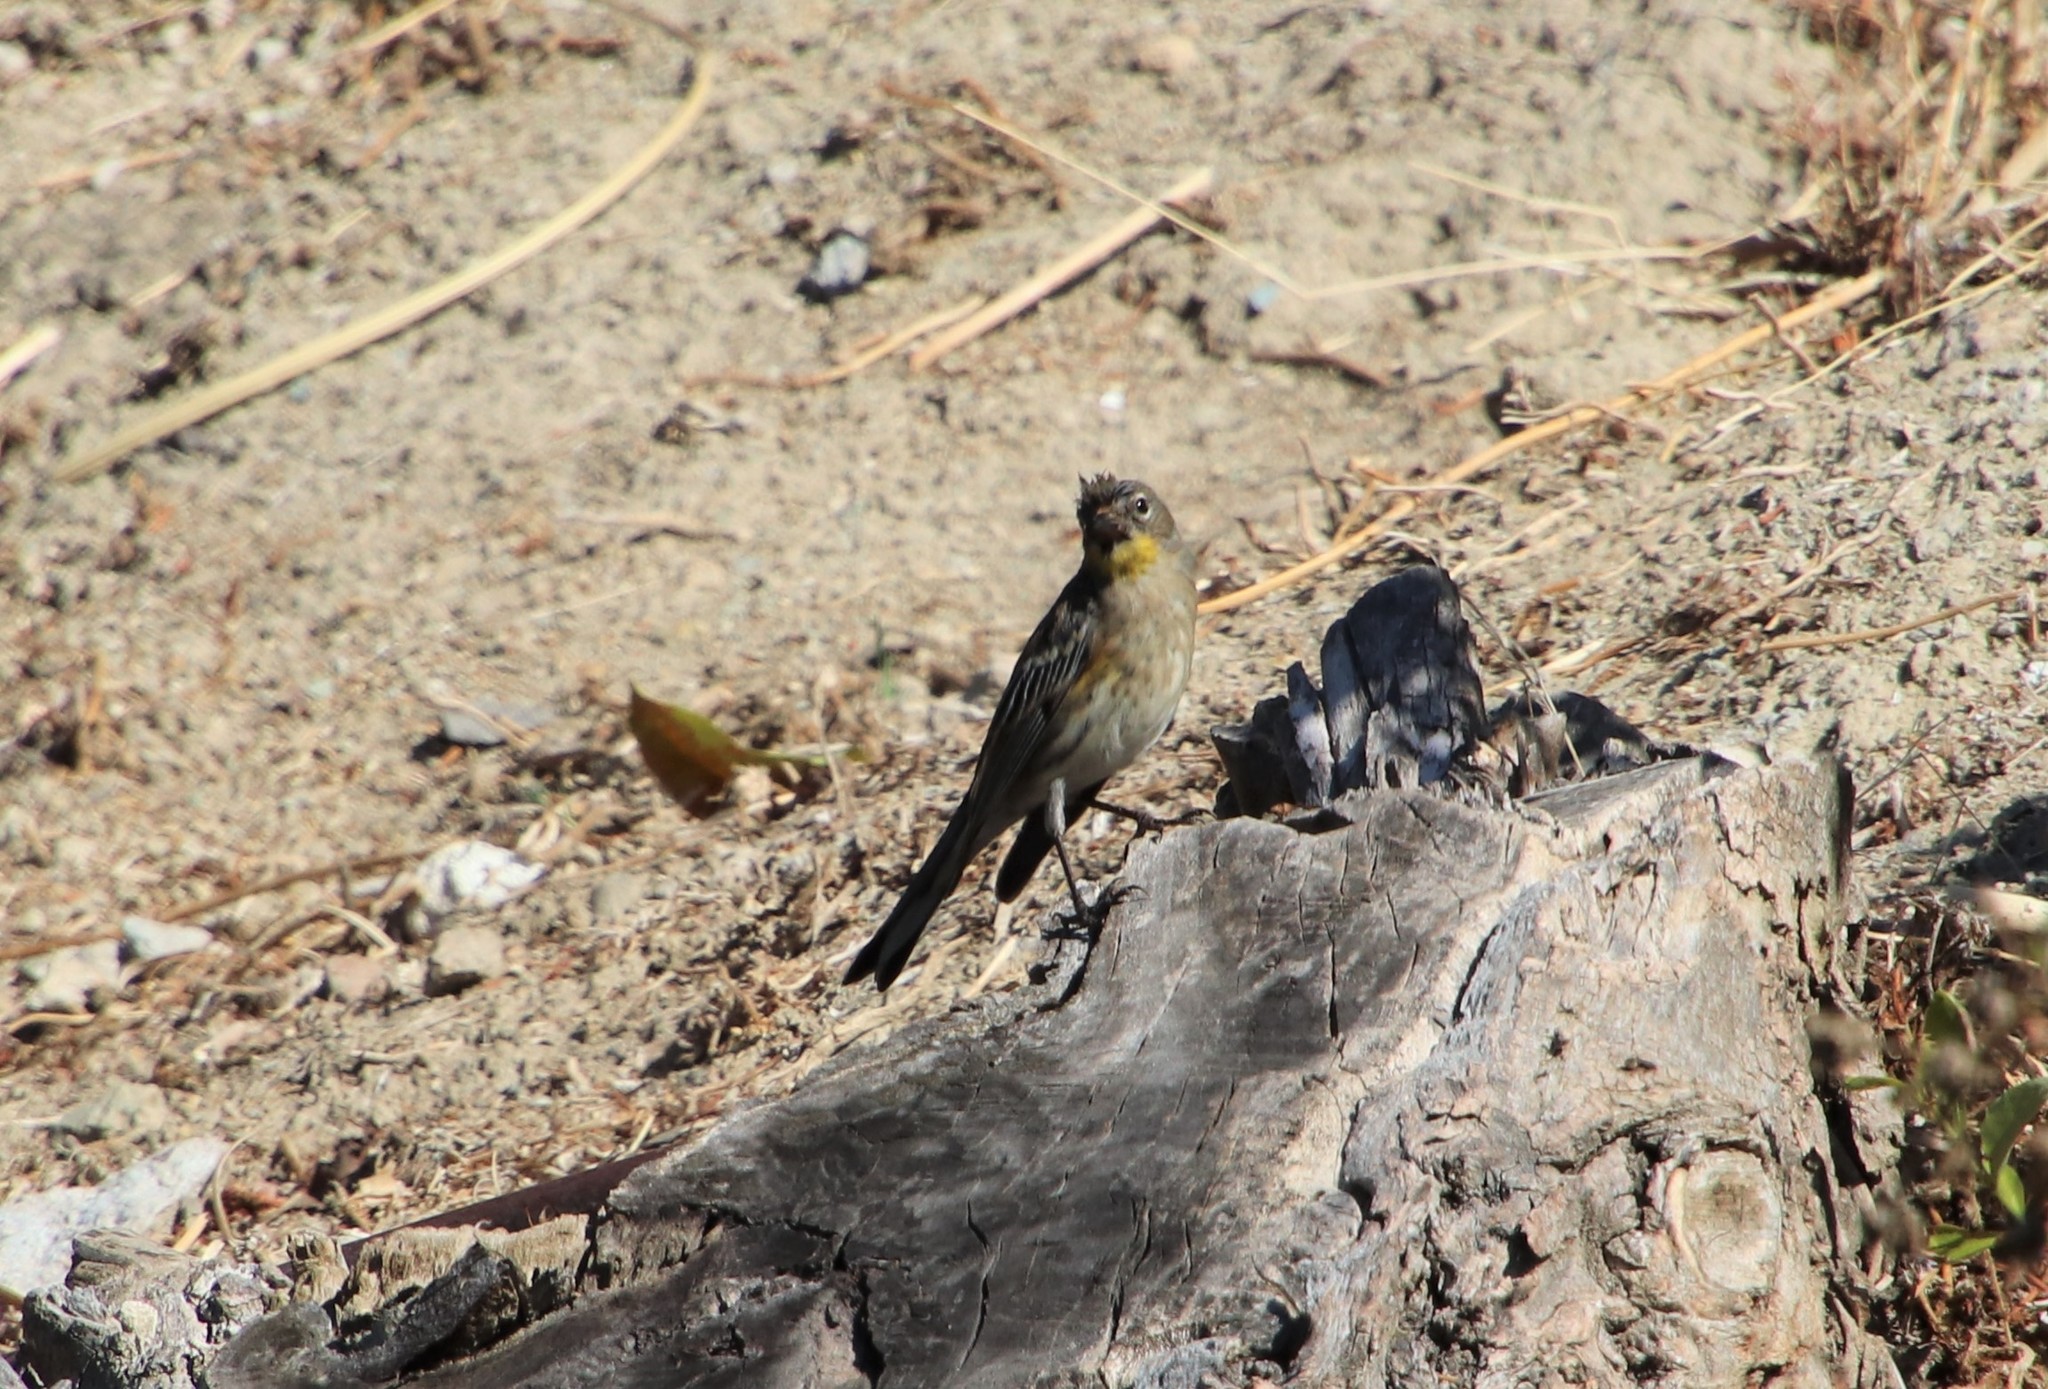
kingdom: Animalia
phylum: Chordata
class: Aves
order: Passeriformes
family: Parulidae
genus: Setophaga
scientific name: Setophaga auduboni
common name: Audubon's warbler
